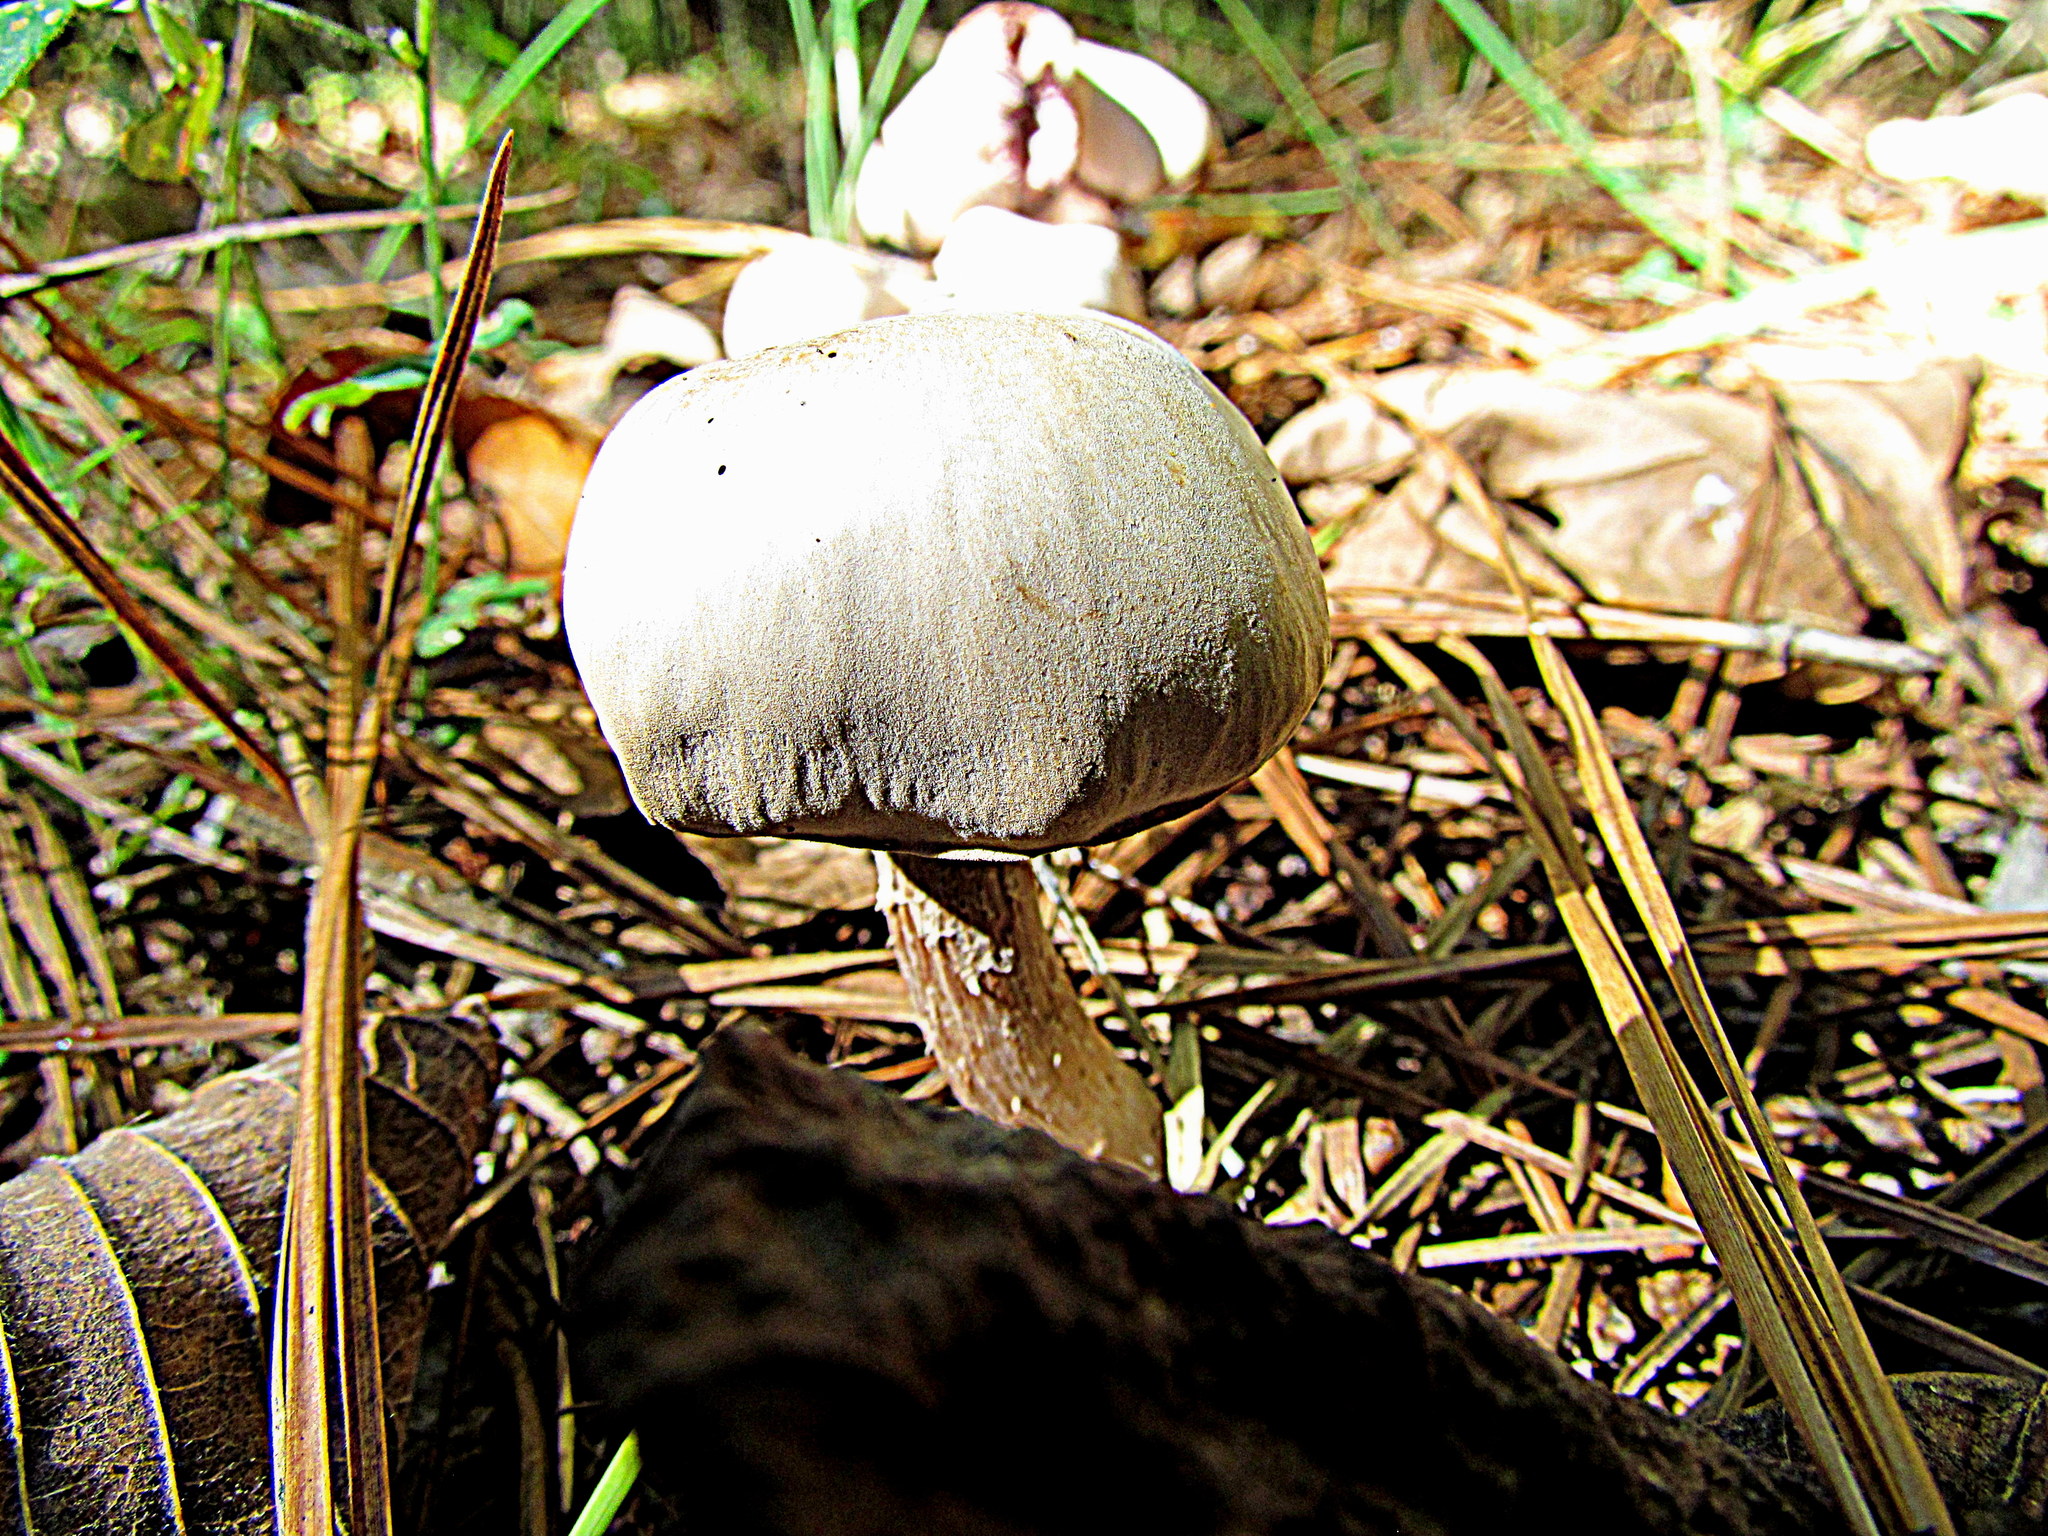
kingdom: Fungi
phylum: Basidiomycota
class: Agaricomycetes
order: Agaricales
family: Hydnangiaceae
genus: Laccaria
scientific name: Laccaria ochropurpurea
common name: Purple laccaria
